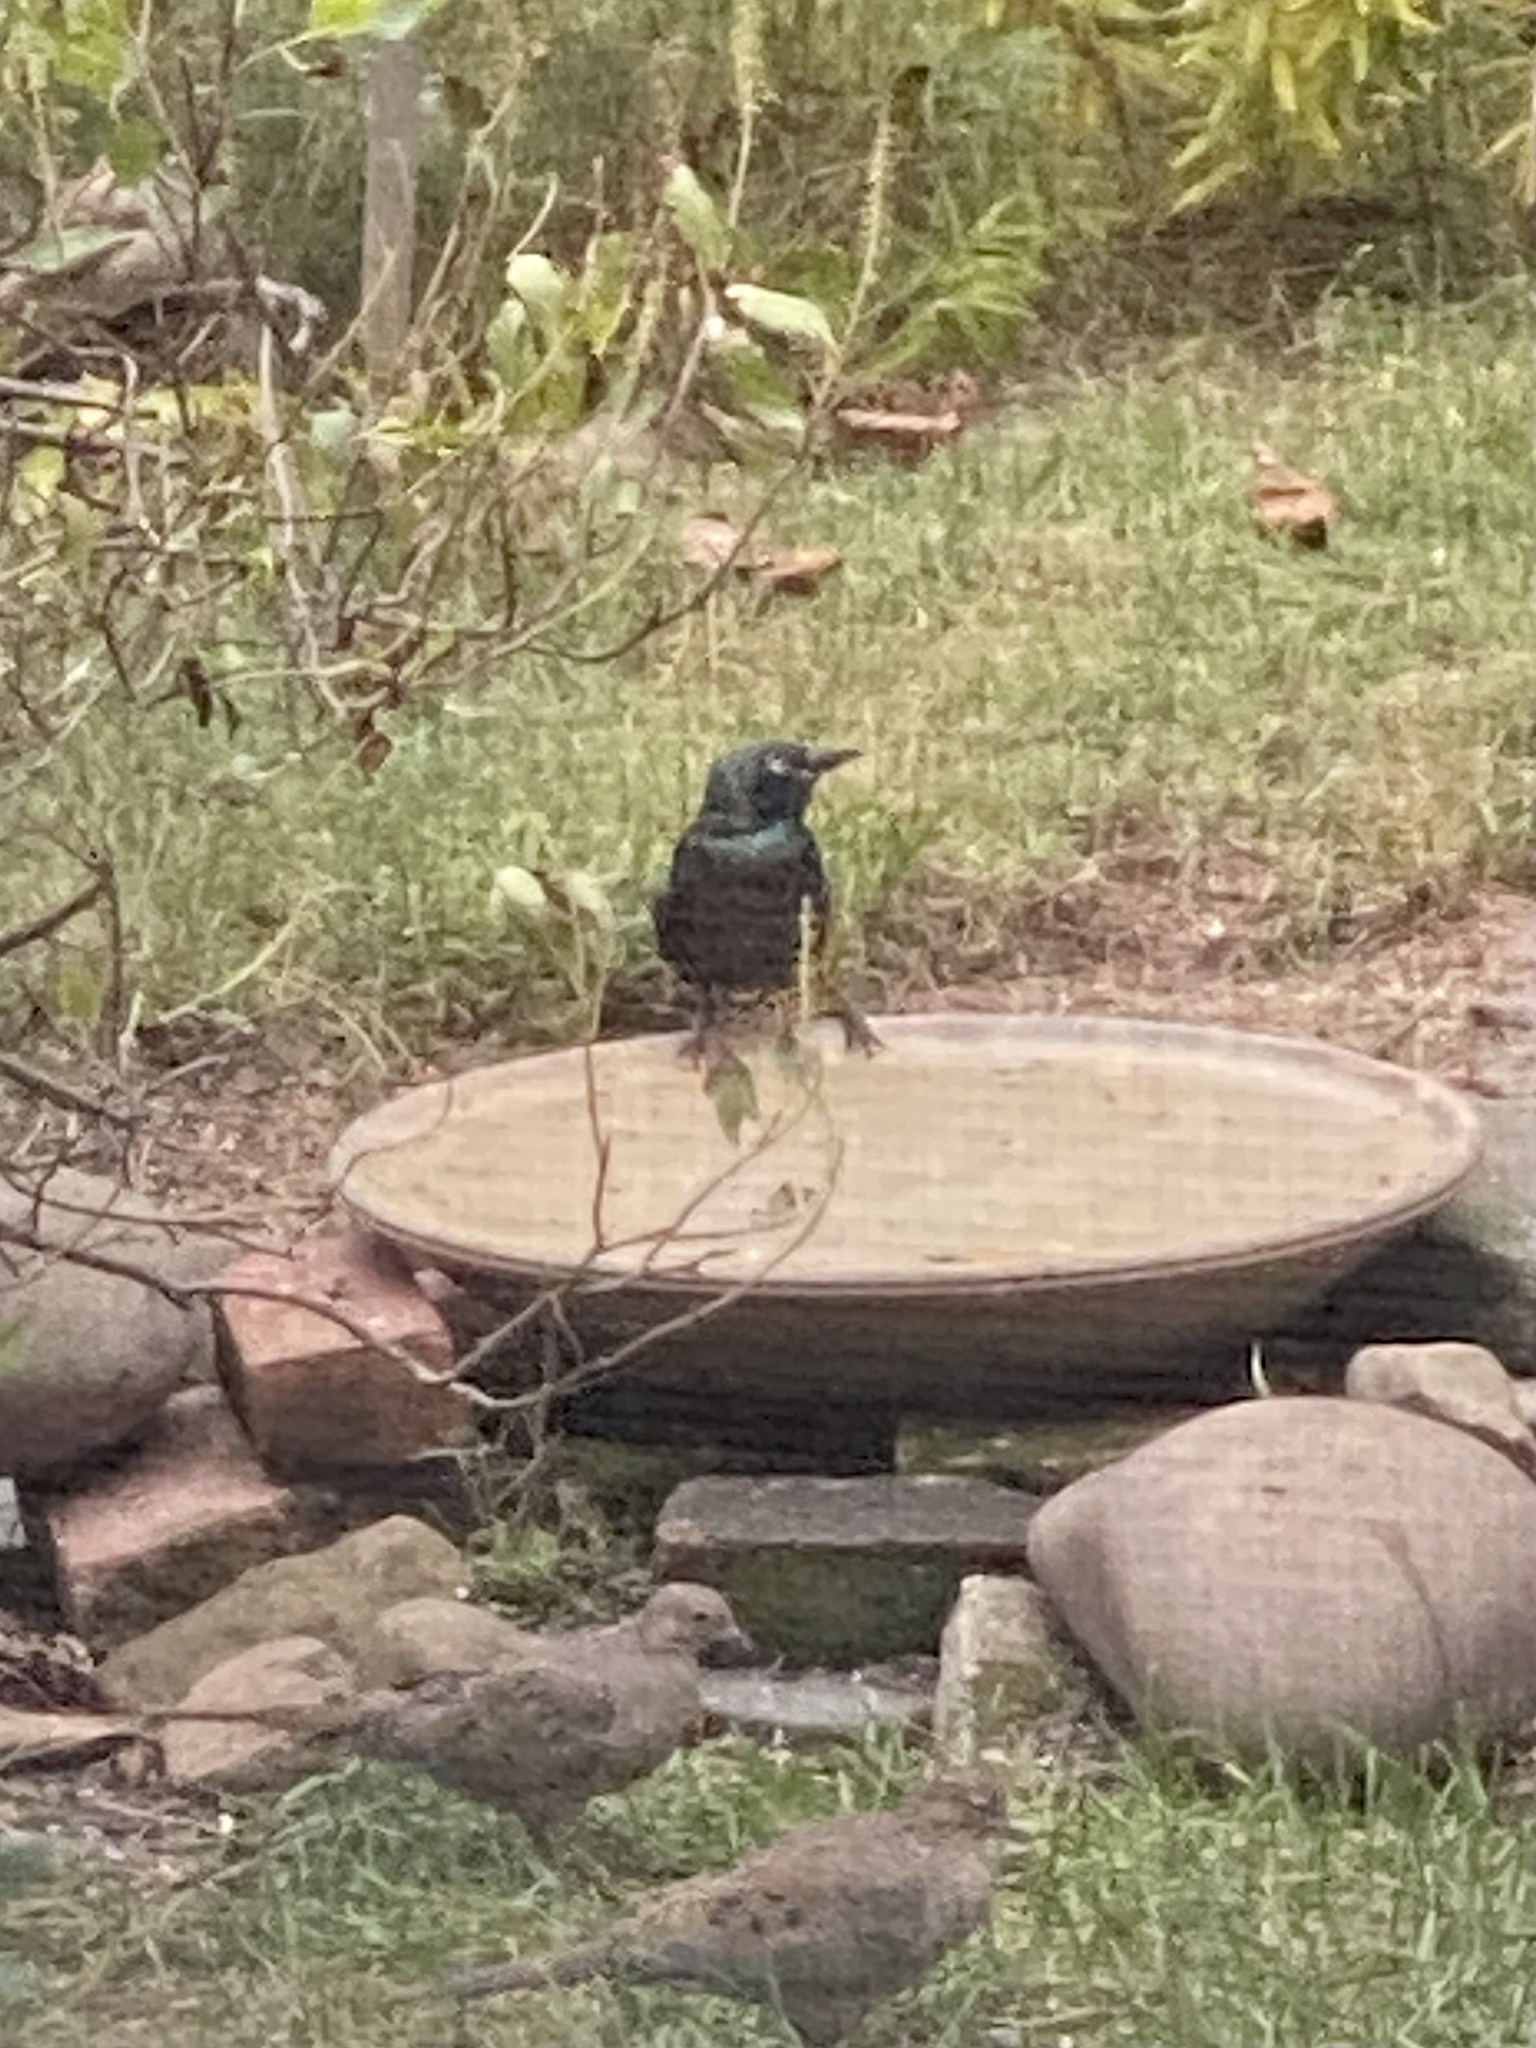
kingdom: Animalia
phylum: Chordata
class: Aves
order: Passeriformes
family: Icteridae
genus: Quiscalus
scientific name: Quiscalus quiscula
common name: Common grackle
